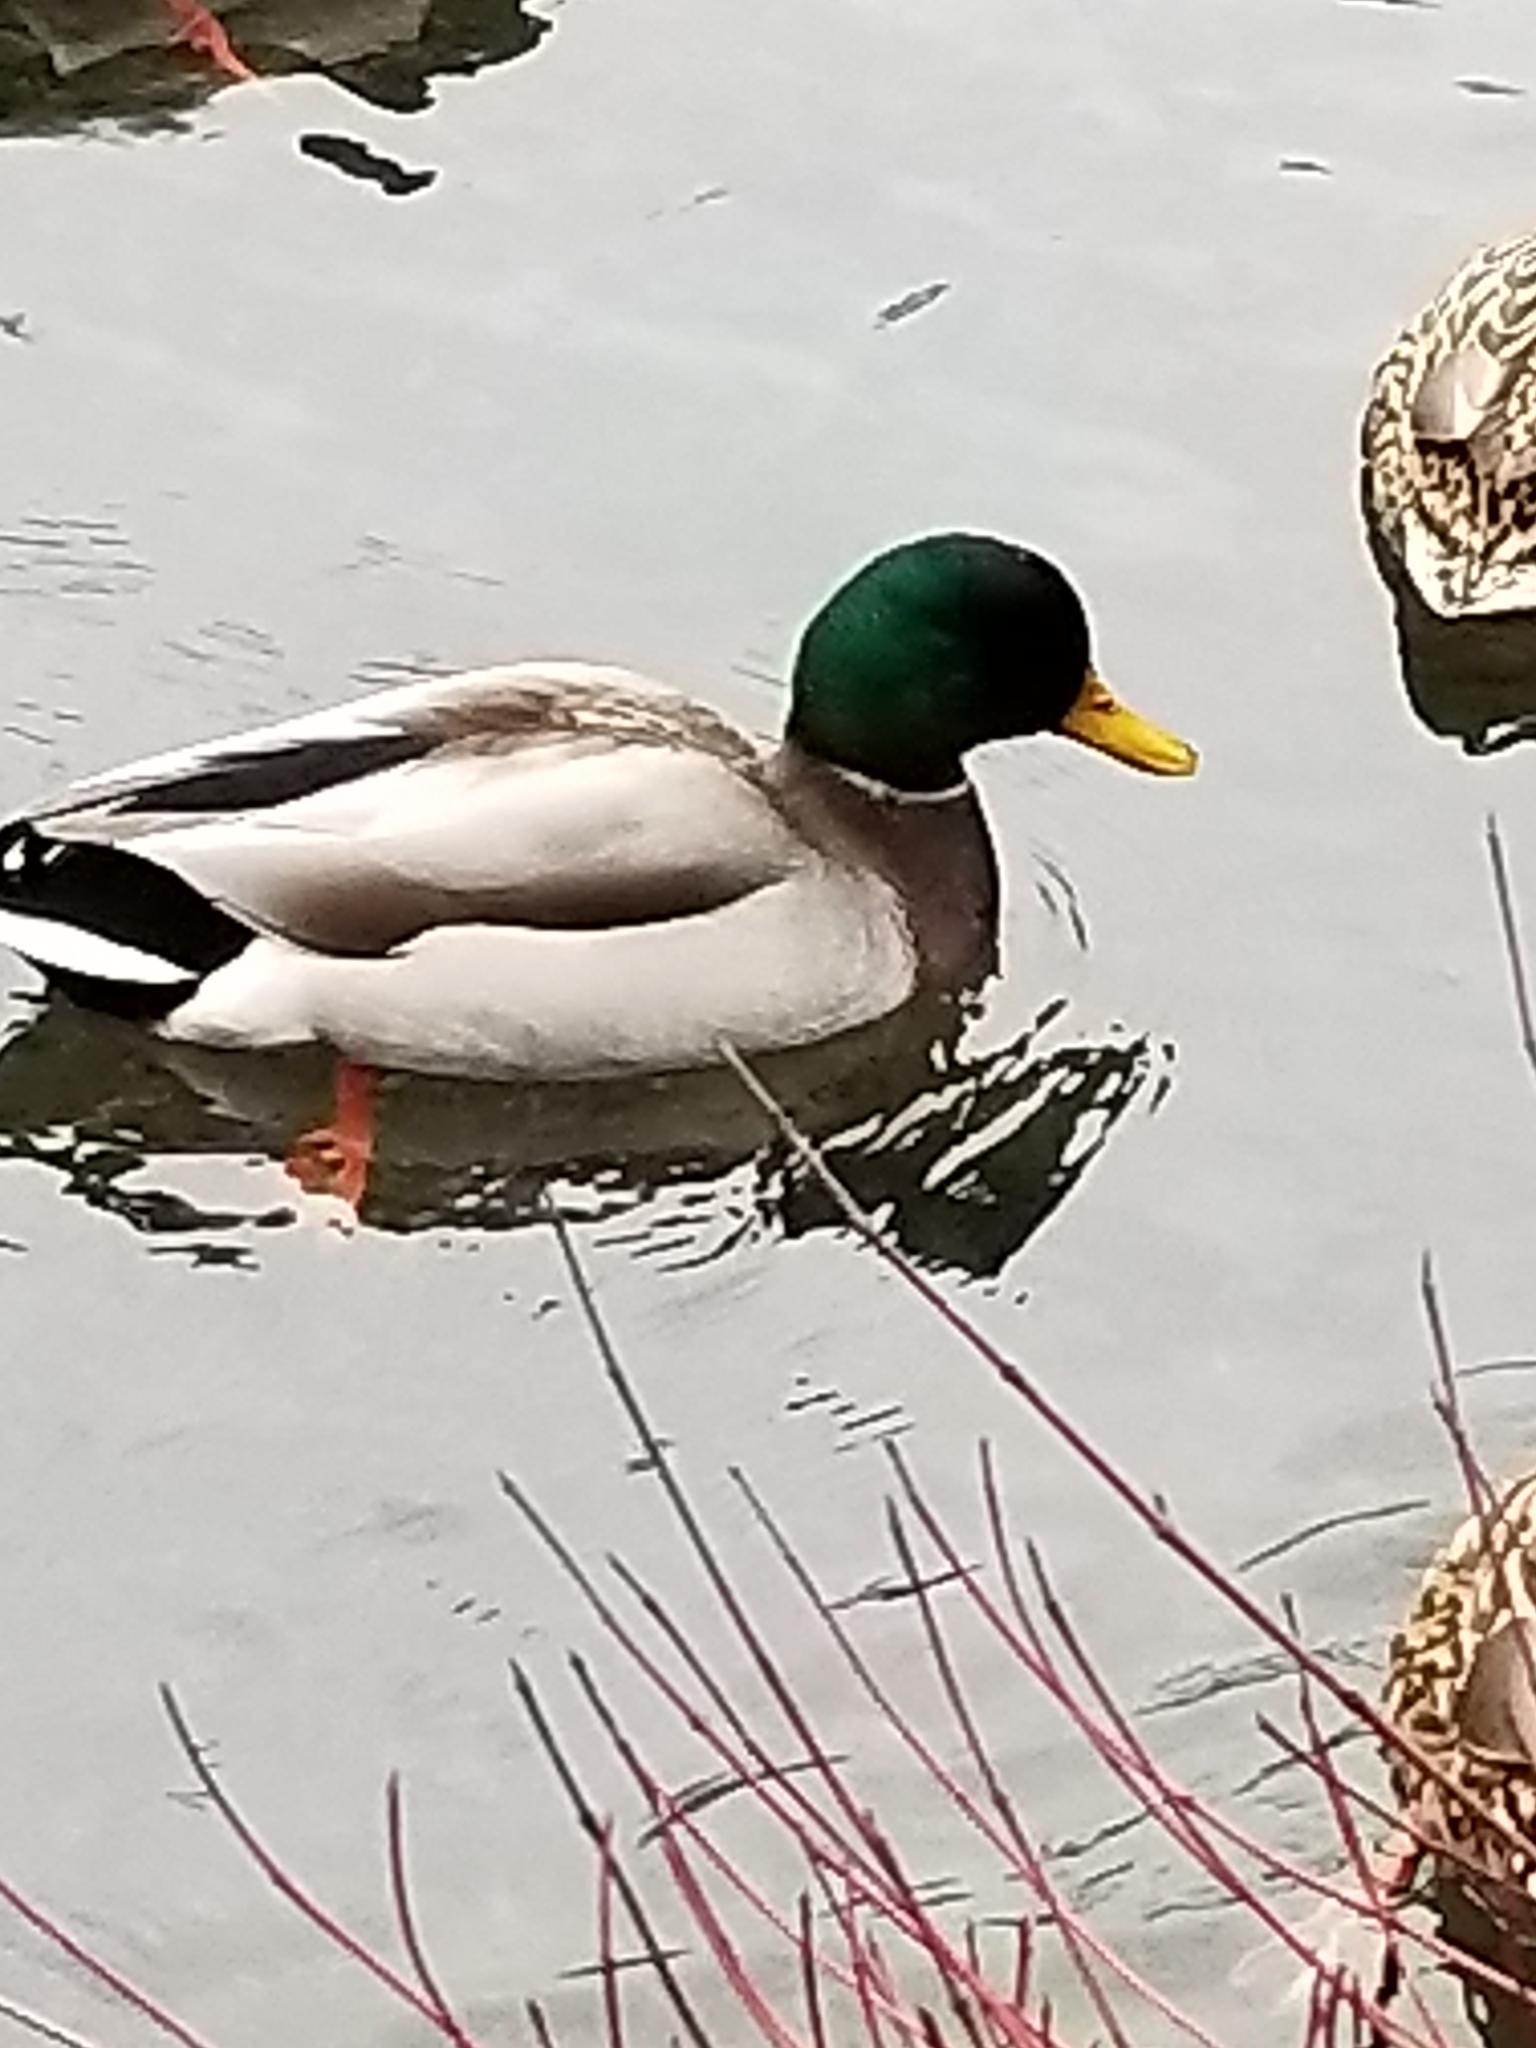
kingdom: Animalia
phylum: Chordata
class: Aves
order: Anseriformes
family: Anatidae
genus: Anas
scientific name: Anas platyrhynchos
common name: Mallard
